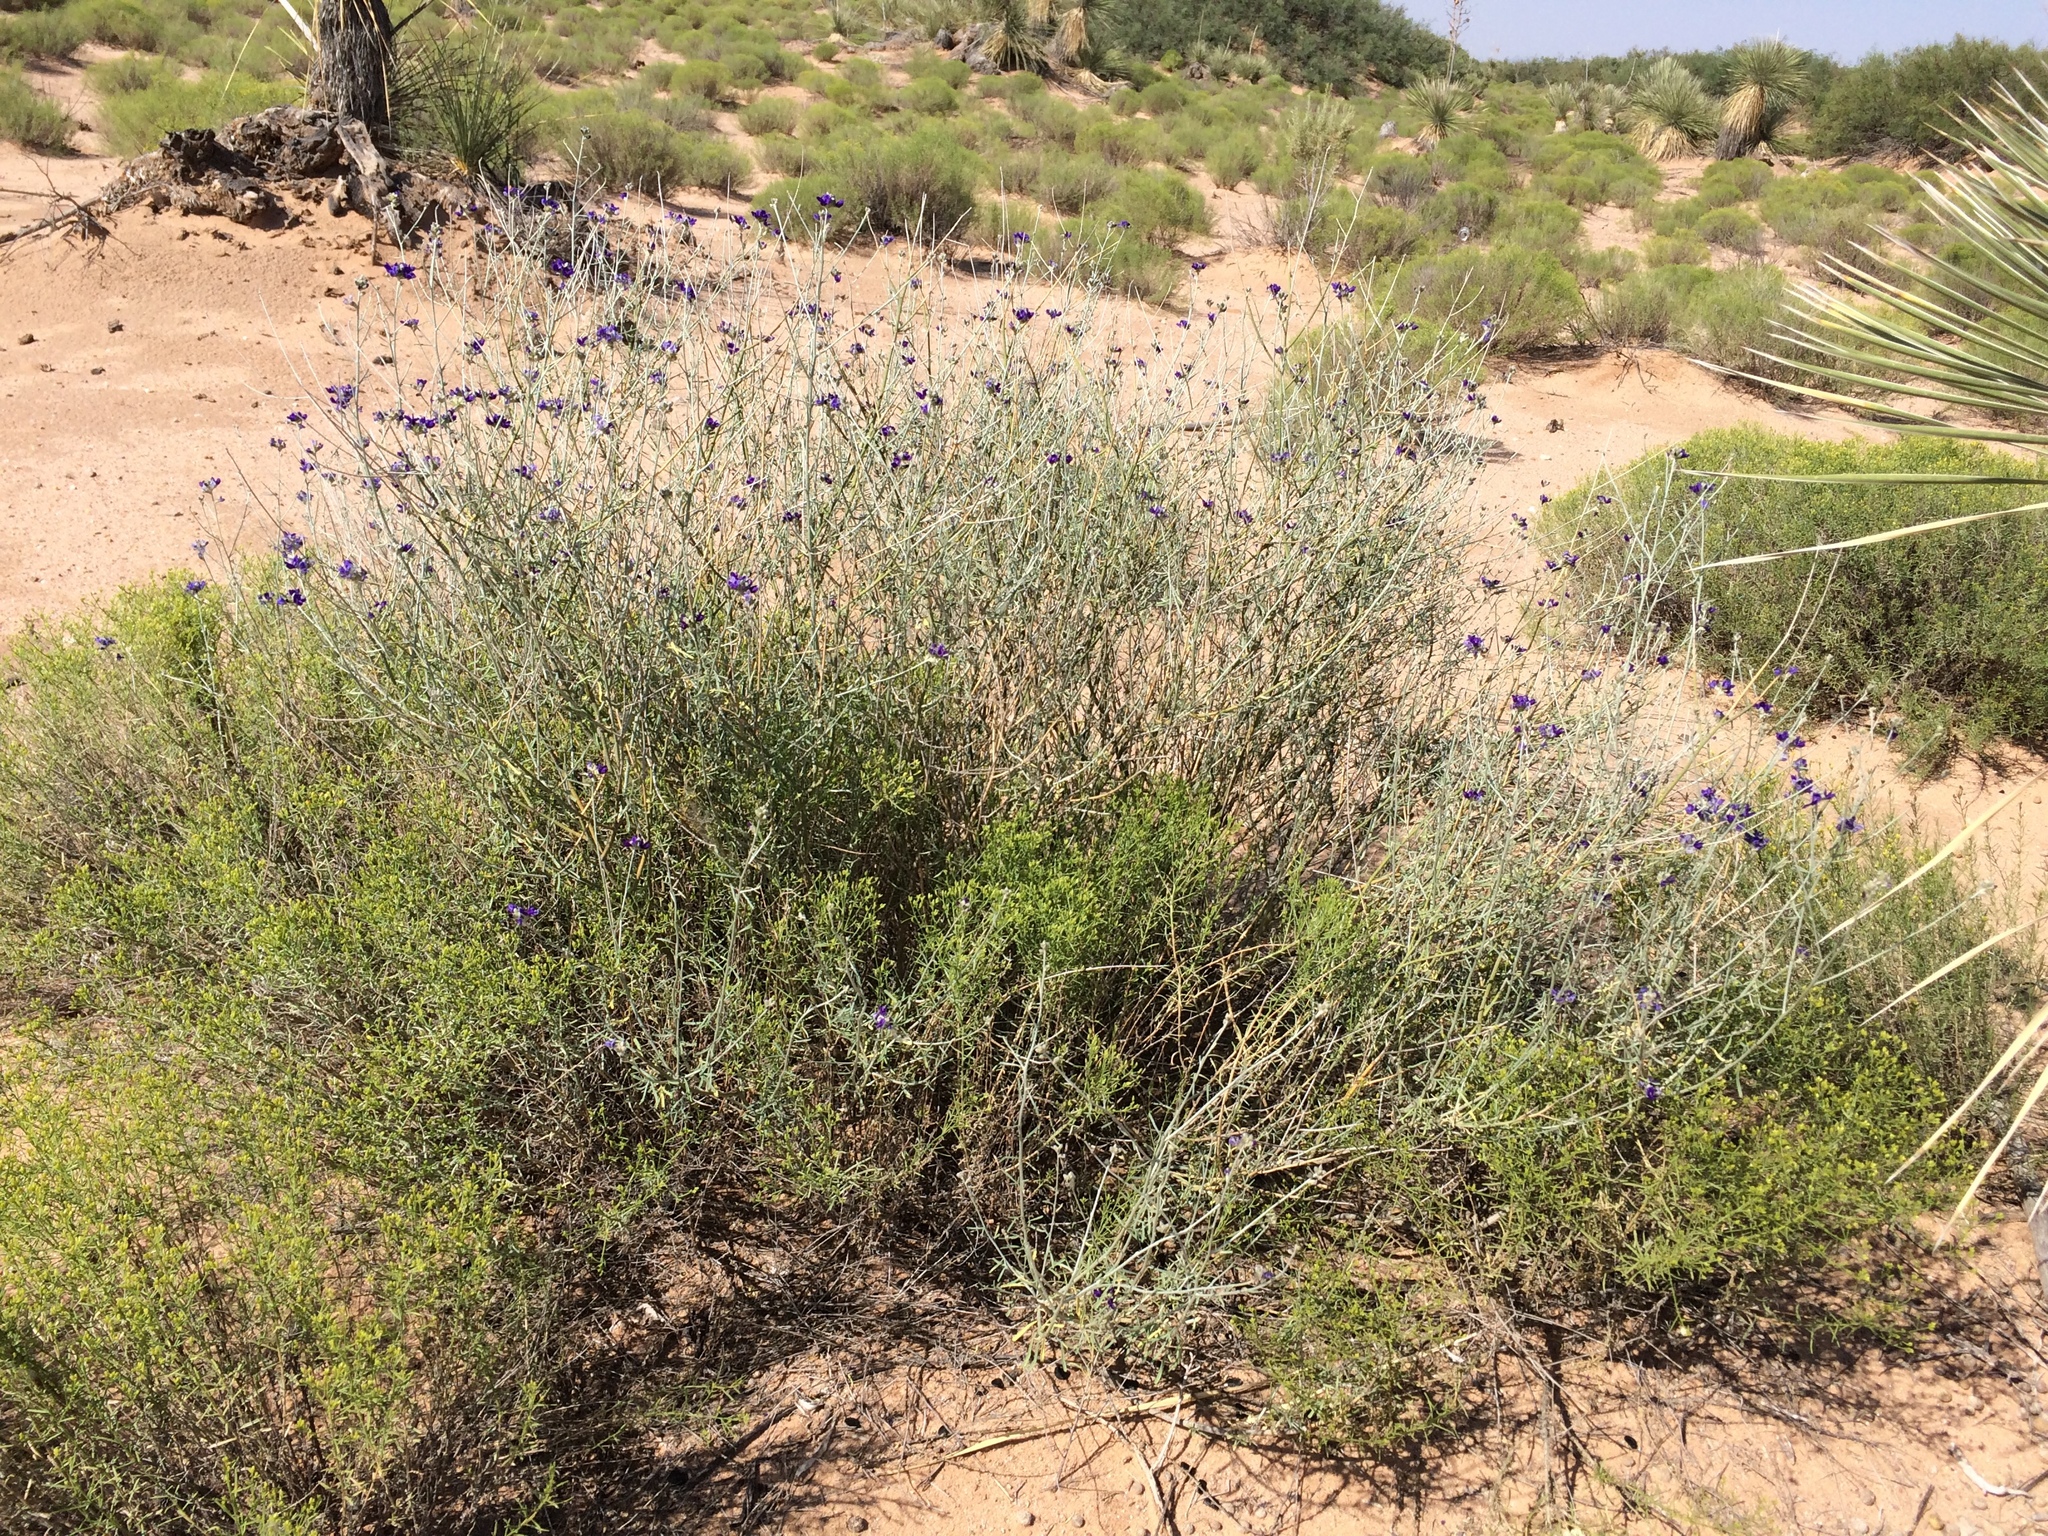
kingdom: Plantae
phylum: Tracheophyta
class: Magnoliopsida
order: Fabales
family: Fabaceae
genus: Psorothamnus
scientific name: Psorothamnus scoparius
